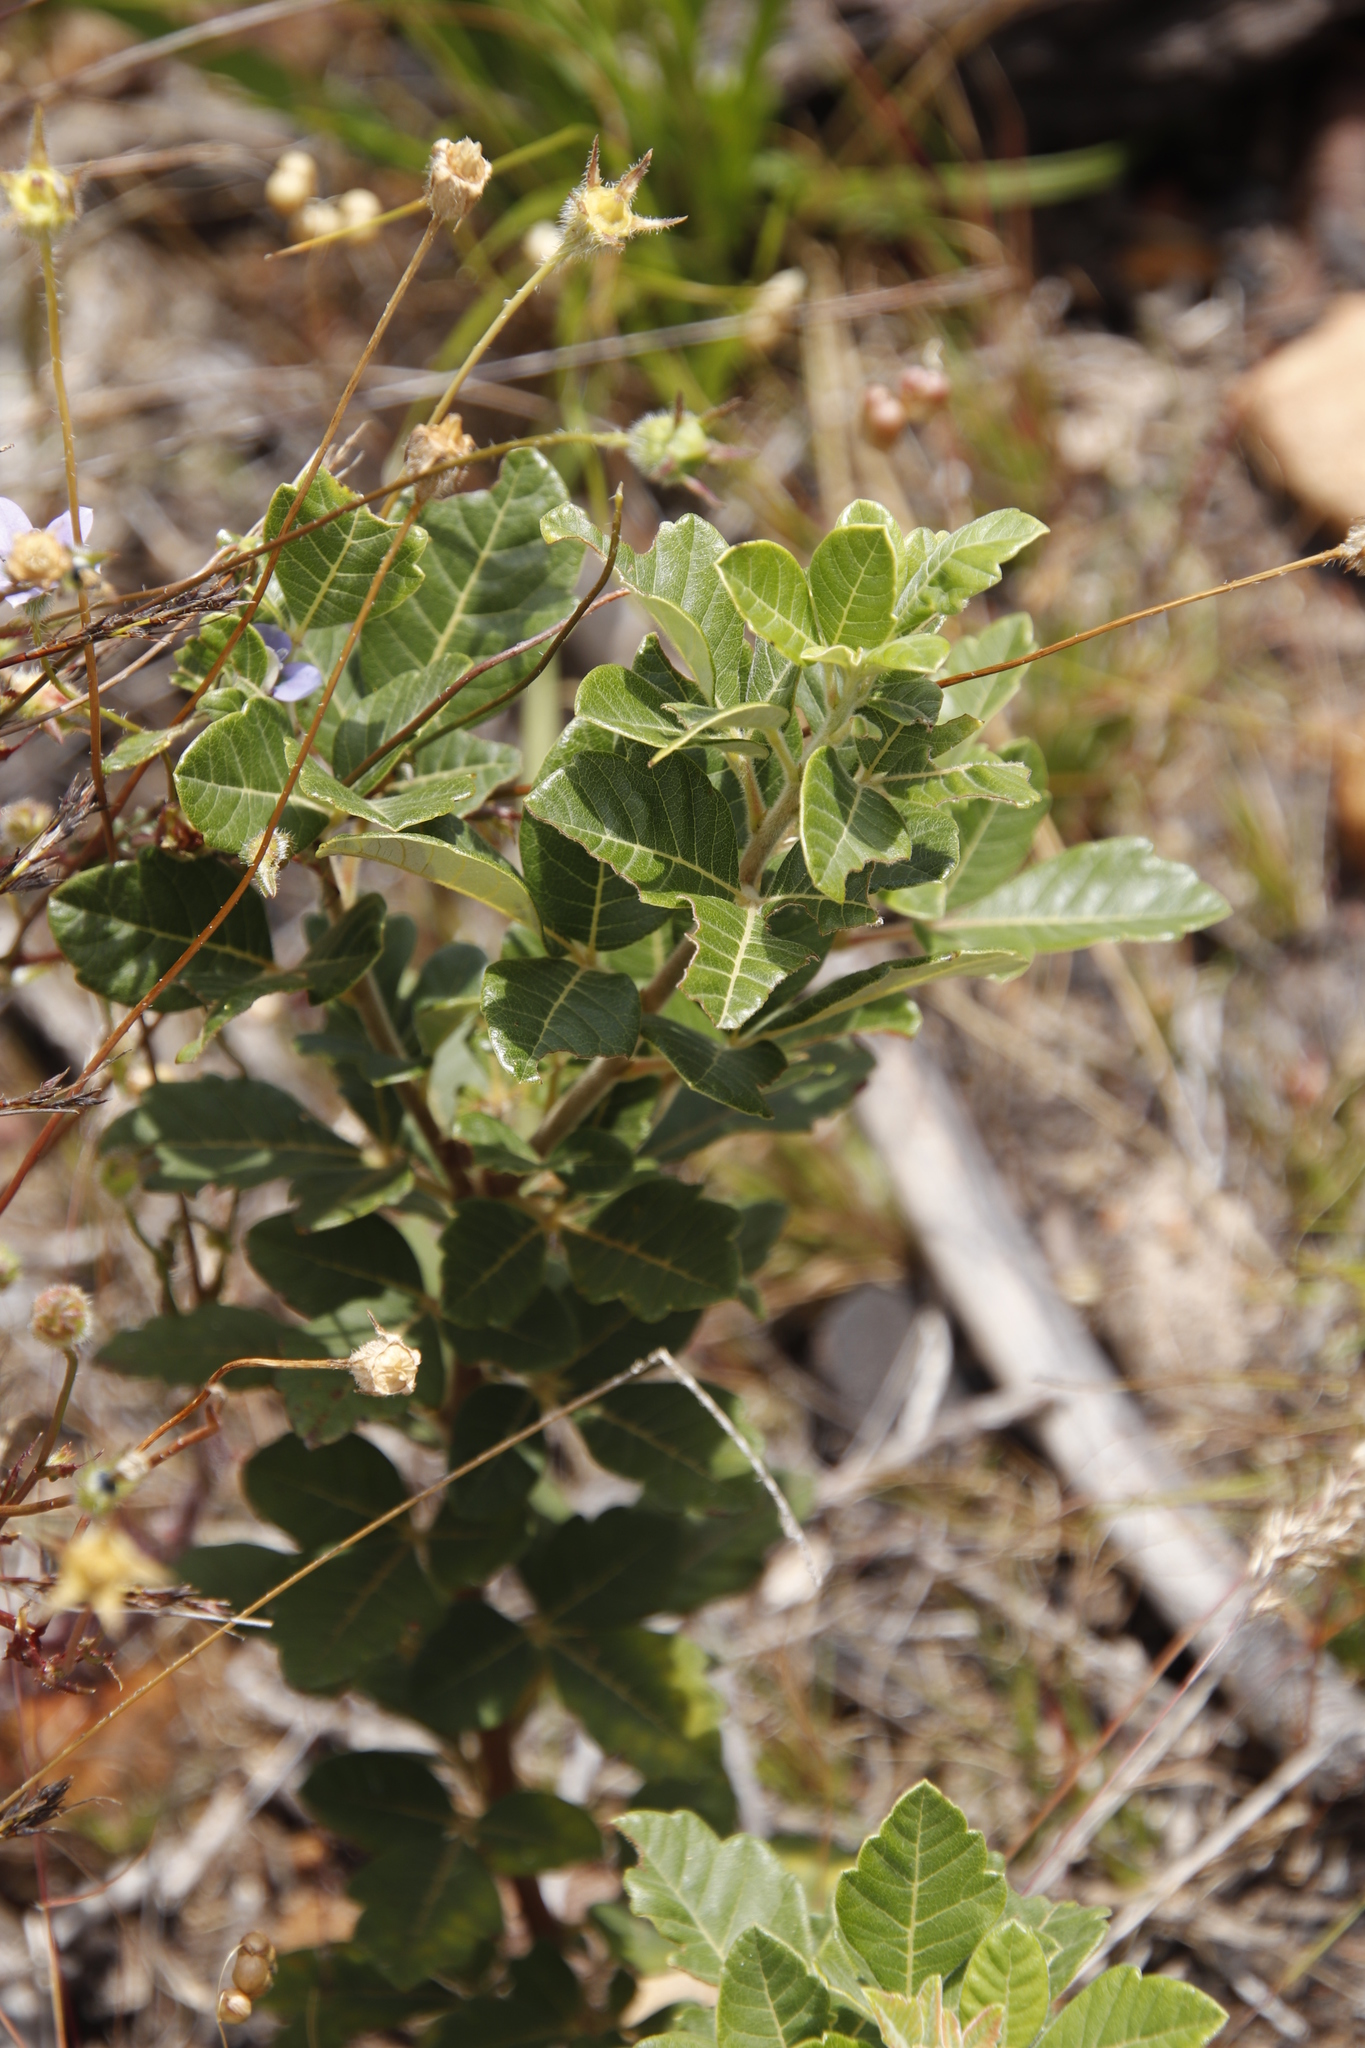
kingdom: Plantae
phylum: Tracheophyta
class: Magnoliopsida
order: Sapindales
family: Anacardiaceae
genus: Searsia
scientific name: Searsia tomentosa
